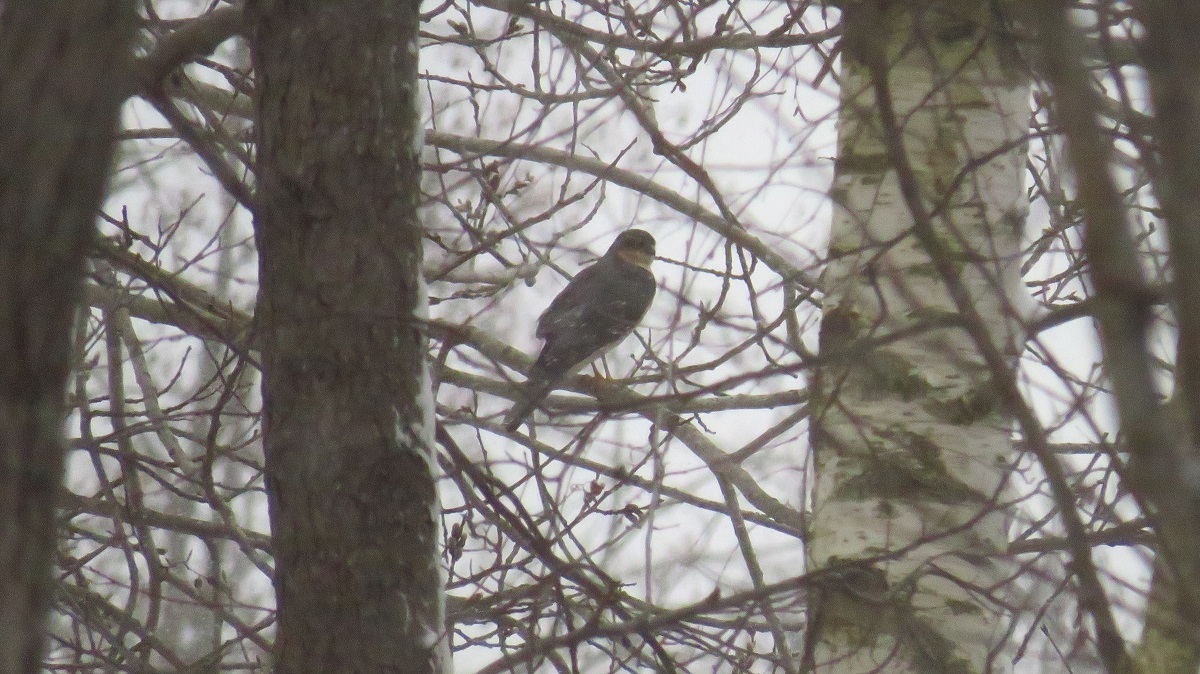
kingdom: Animalia
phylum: Chordata
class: Aves
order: Accipitriformes
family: Accipitridae
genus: Accipiter
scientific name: Accipiter nisus
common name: Eurasian sparrowhawk
